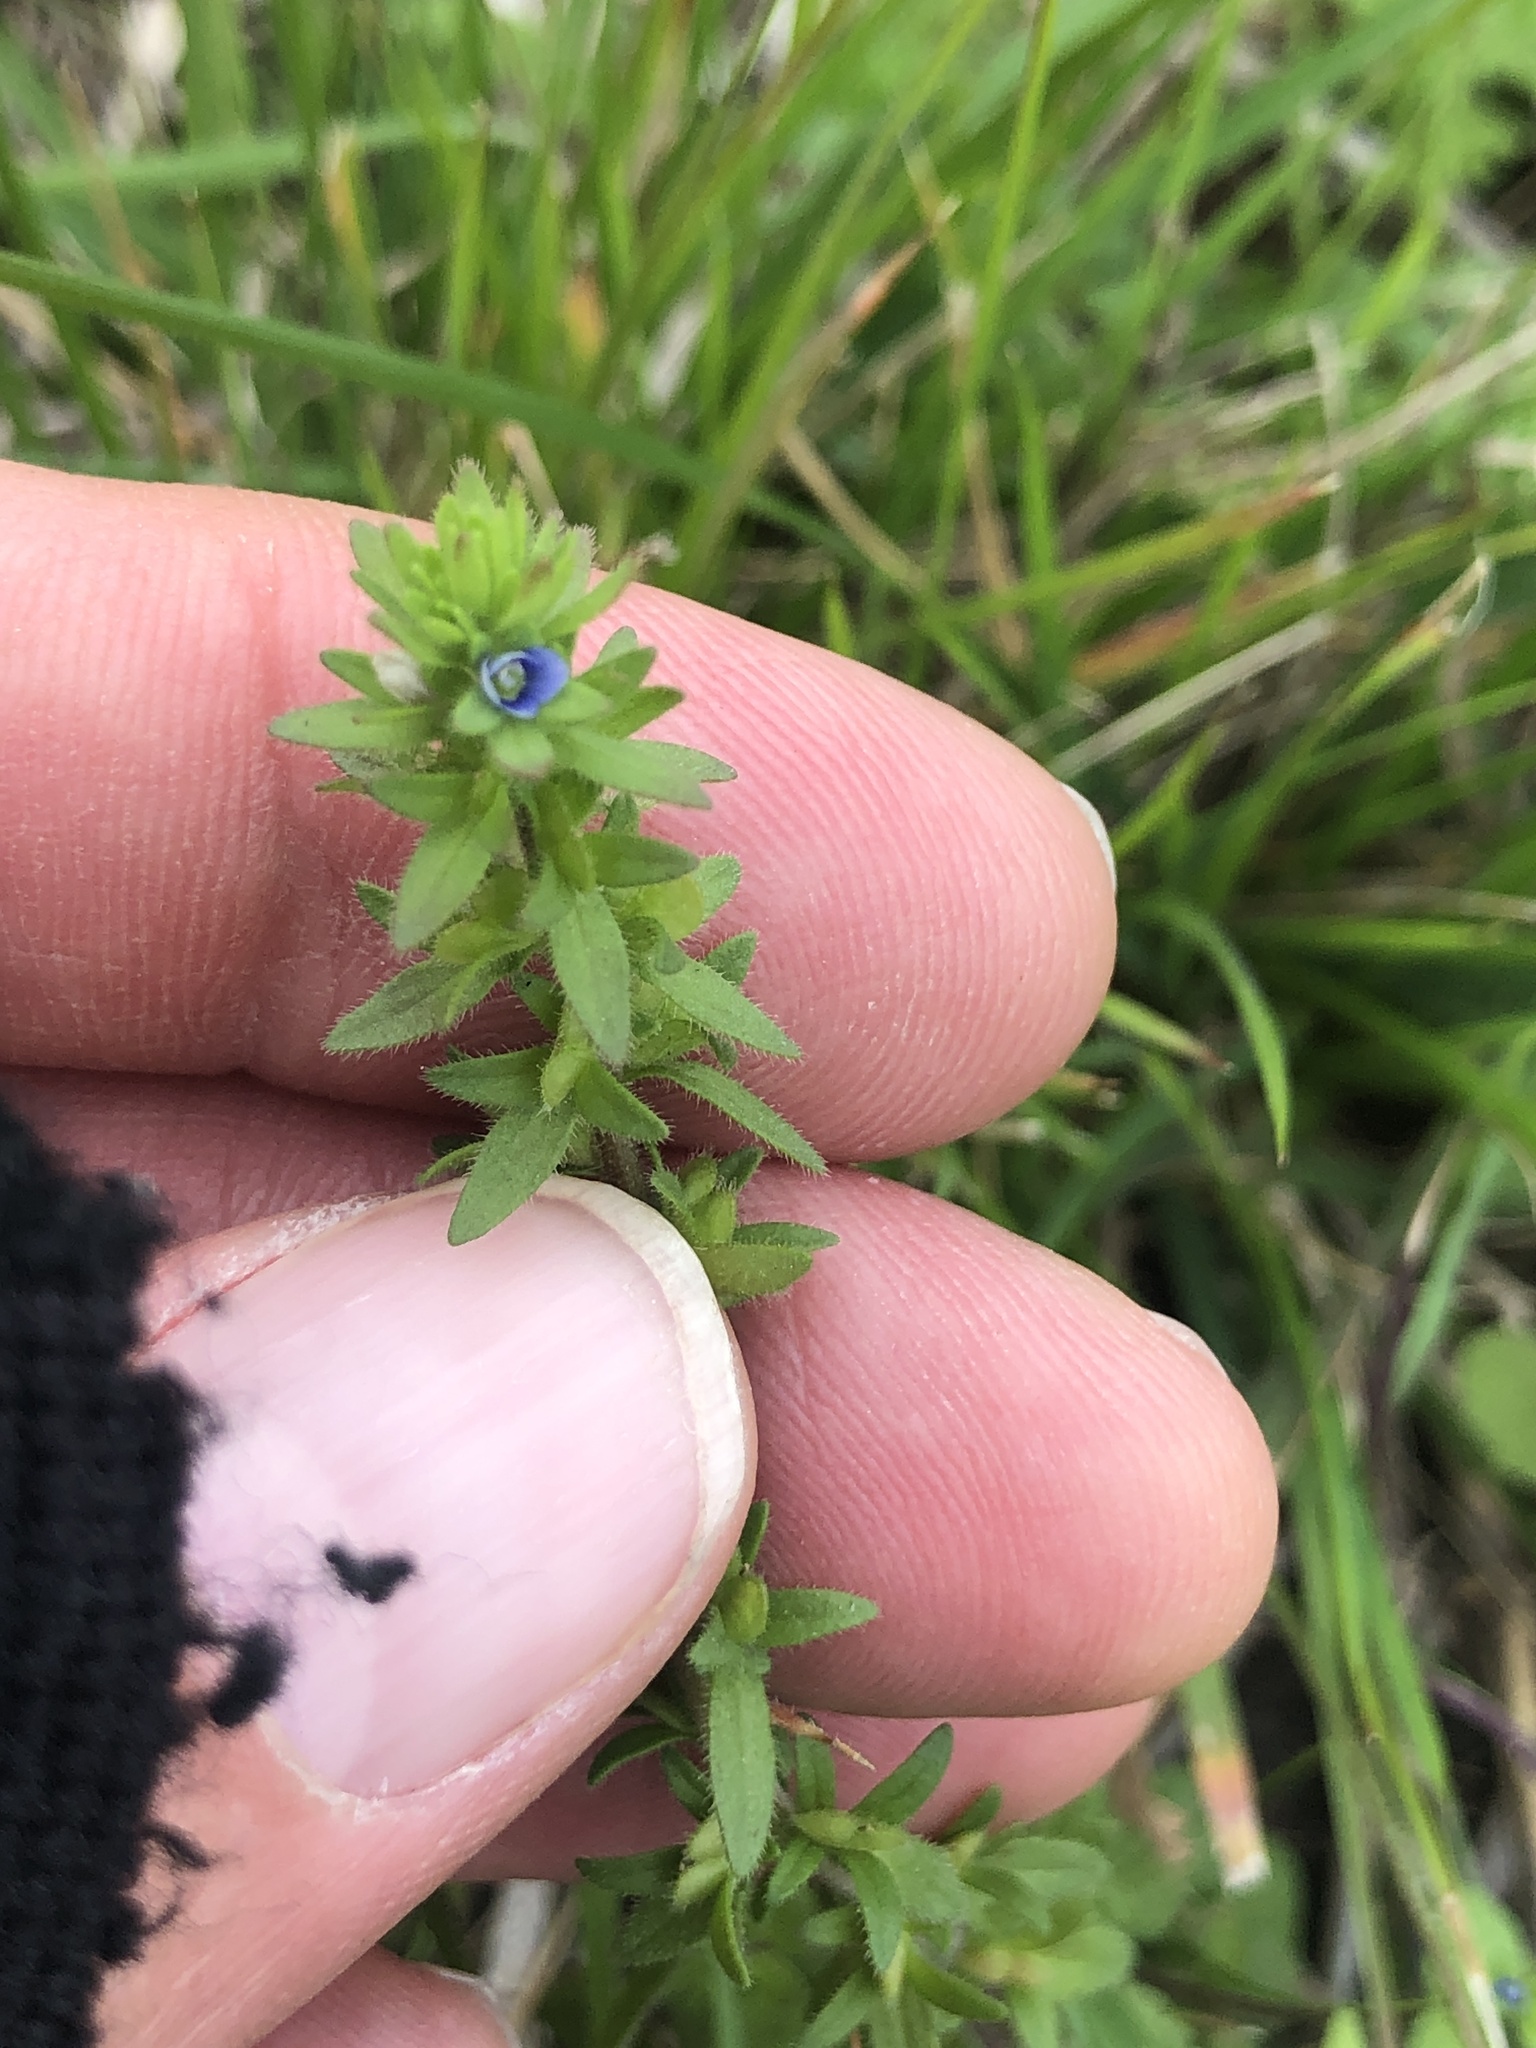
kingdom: Plantae
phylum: Tracheophyta
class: Magnoliopsida
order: Lamiales
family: Plantaginaceae
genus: Veronica
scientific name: Veronica arvensis
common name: Corn speedwell
